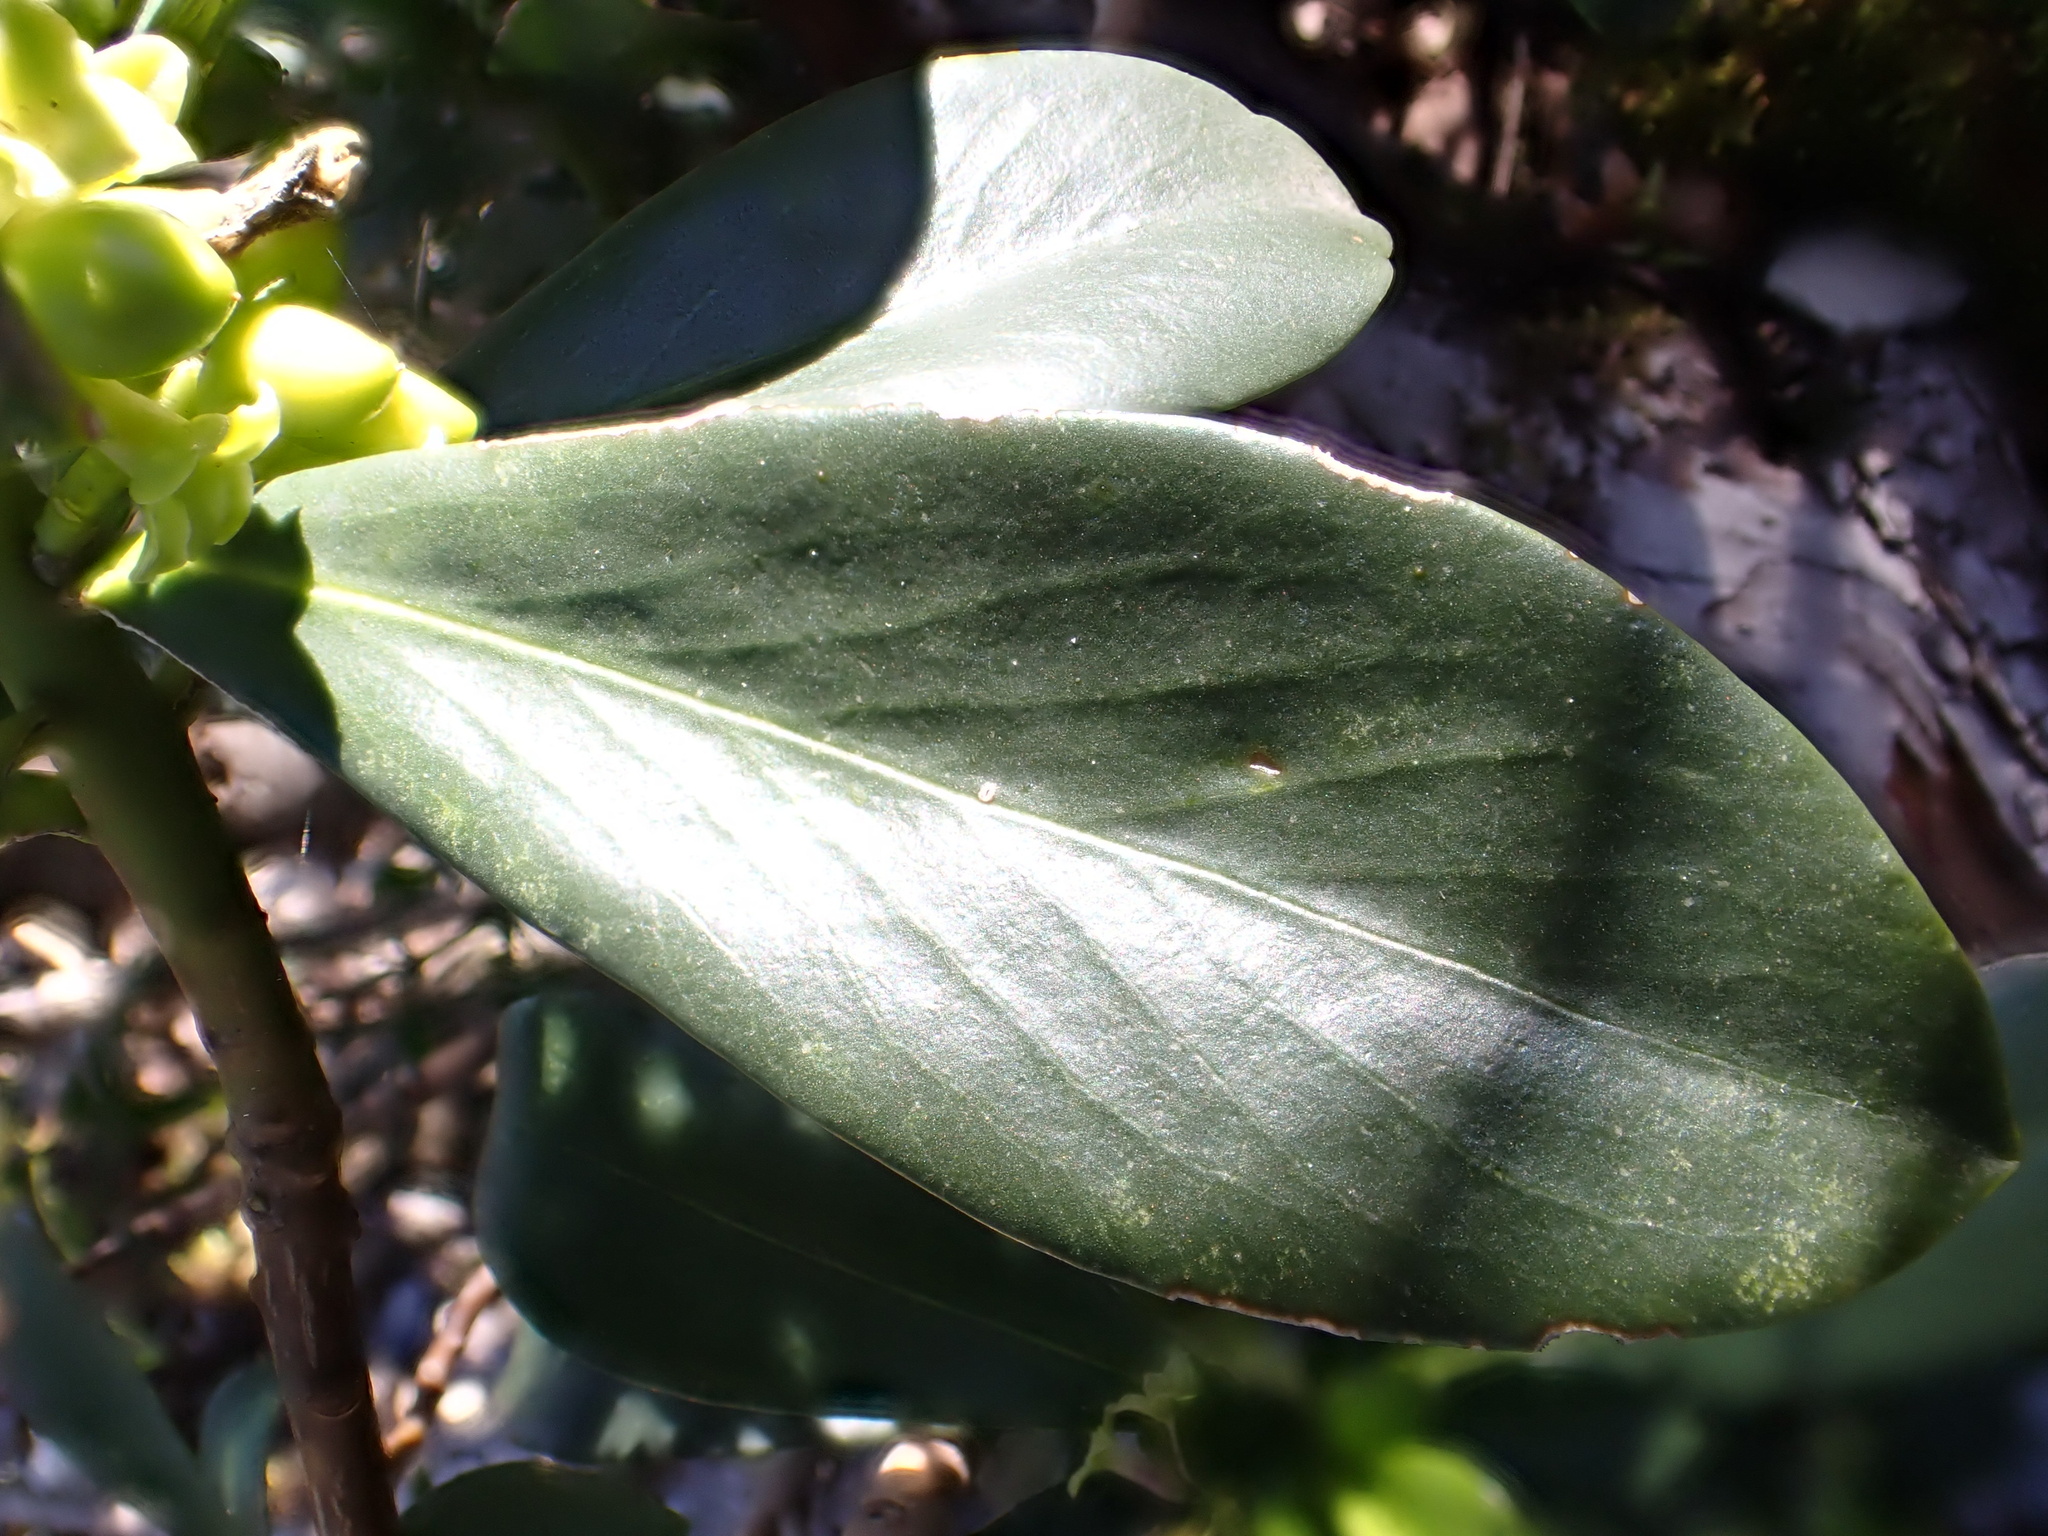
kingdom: Plantae
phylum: Tracheophyta
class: Magnoliopsida
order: Malvales
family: Thymelaeaceae
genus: Daphne
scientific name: Daphne laureola
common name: Spurge-laurel
